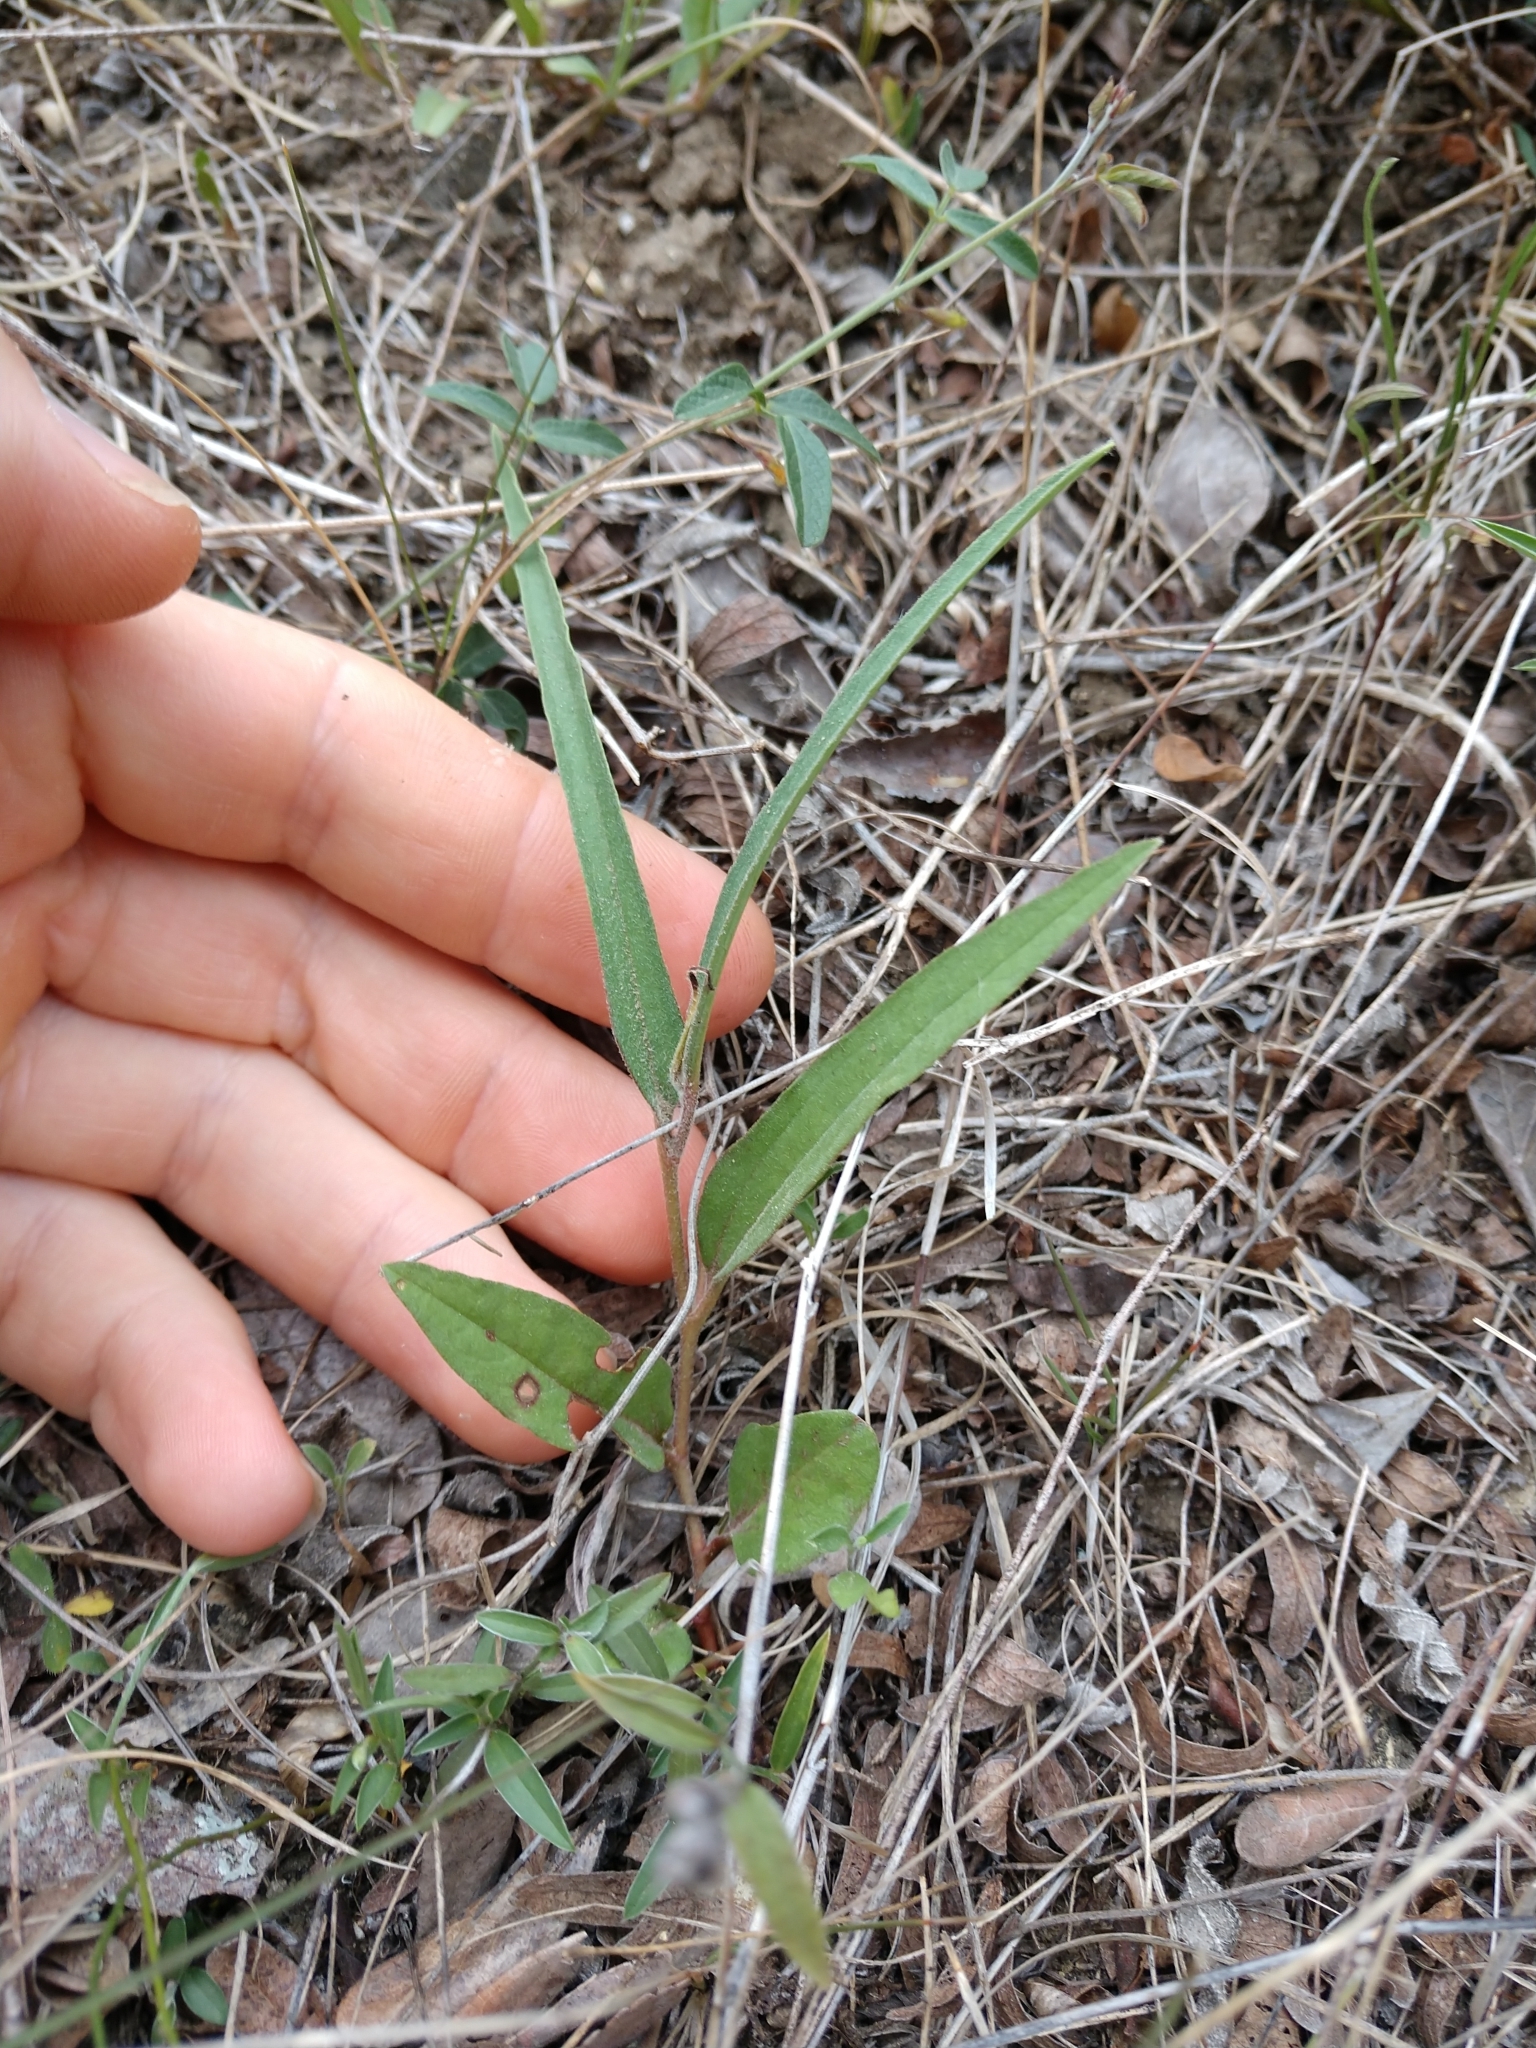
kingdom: Plantae
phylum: Tracheophyta
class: Magnoliopsida
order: Piperales
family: Aristolochiaceae
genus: Aristolochia
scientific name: Aristolochia erecta
